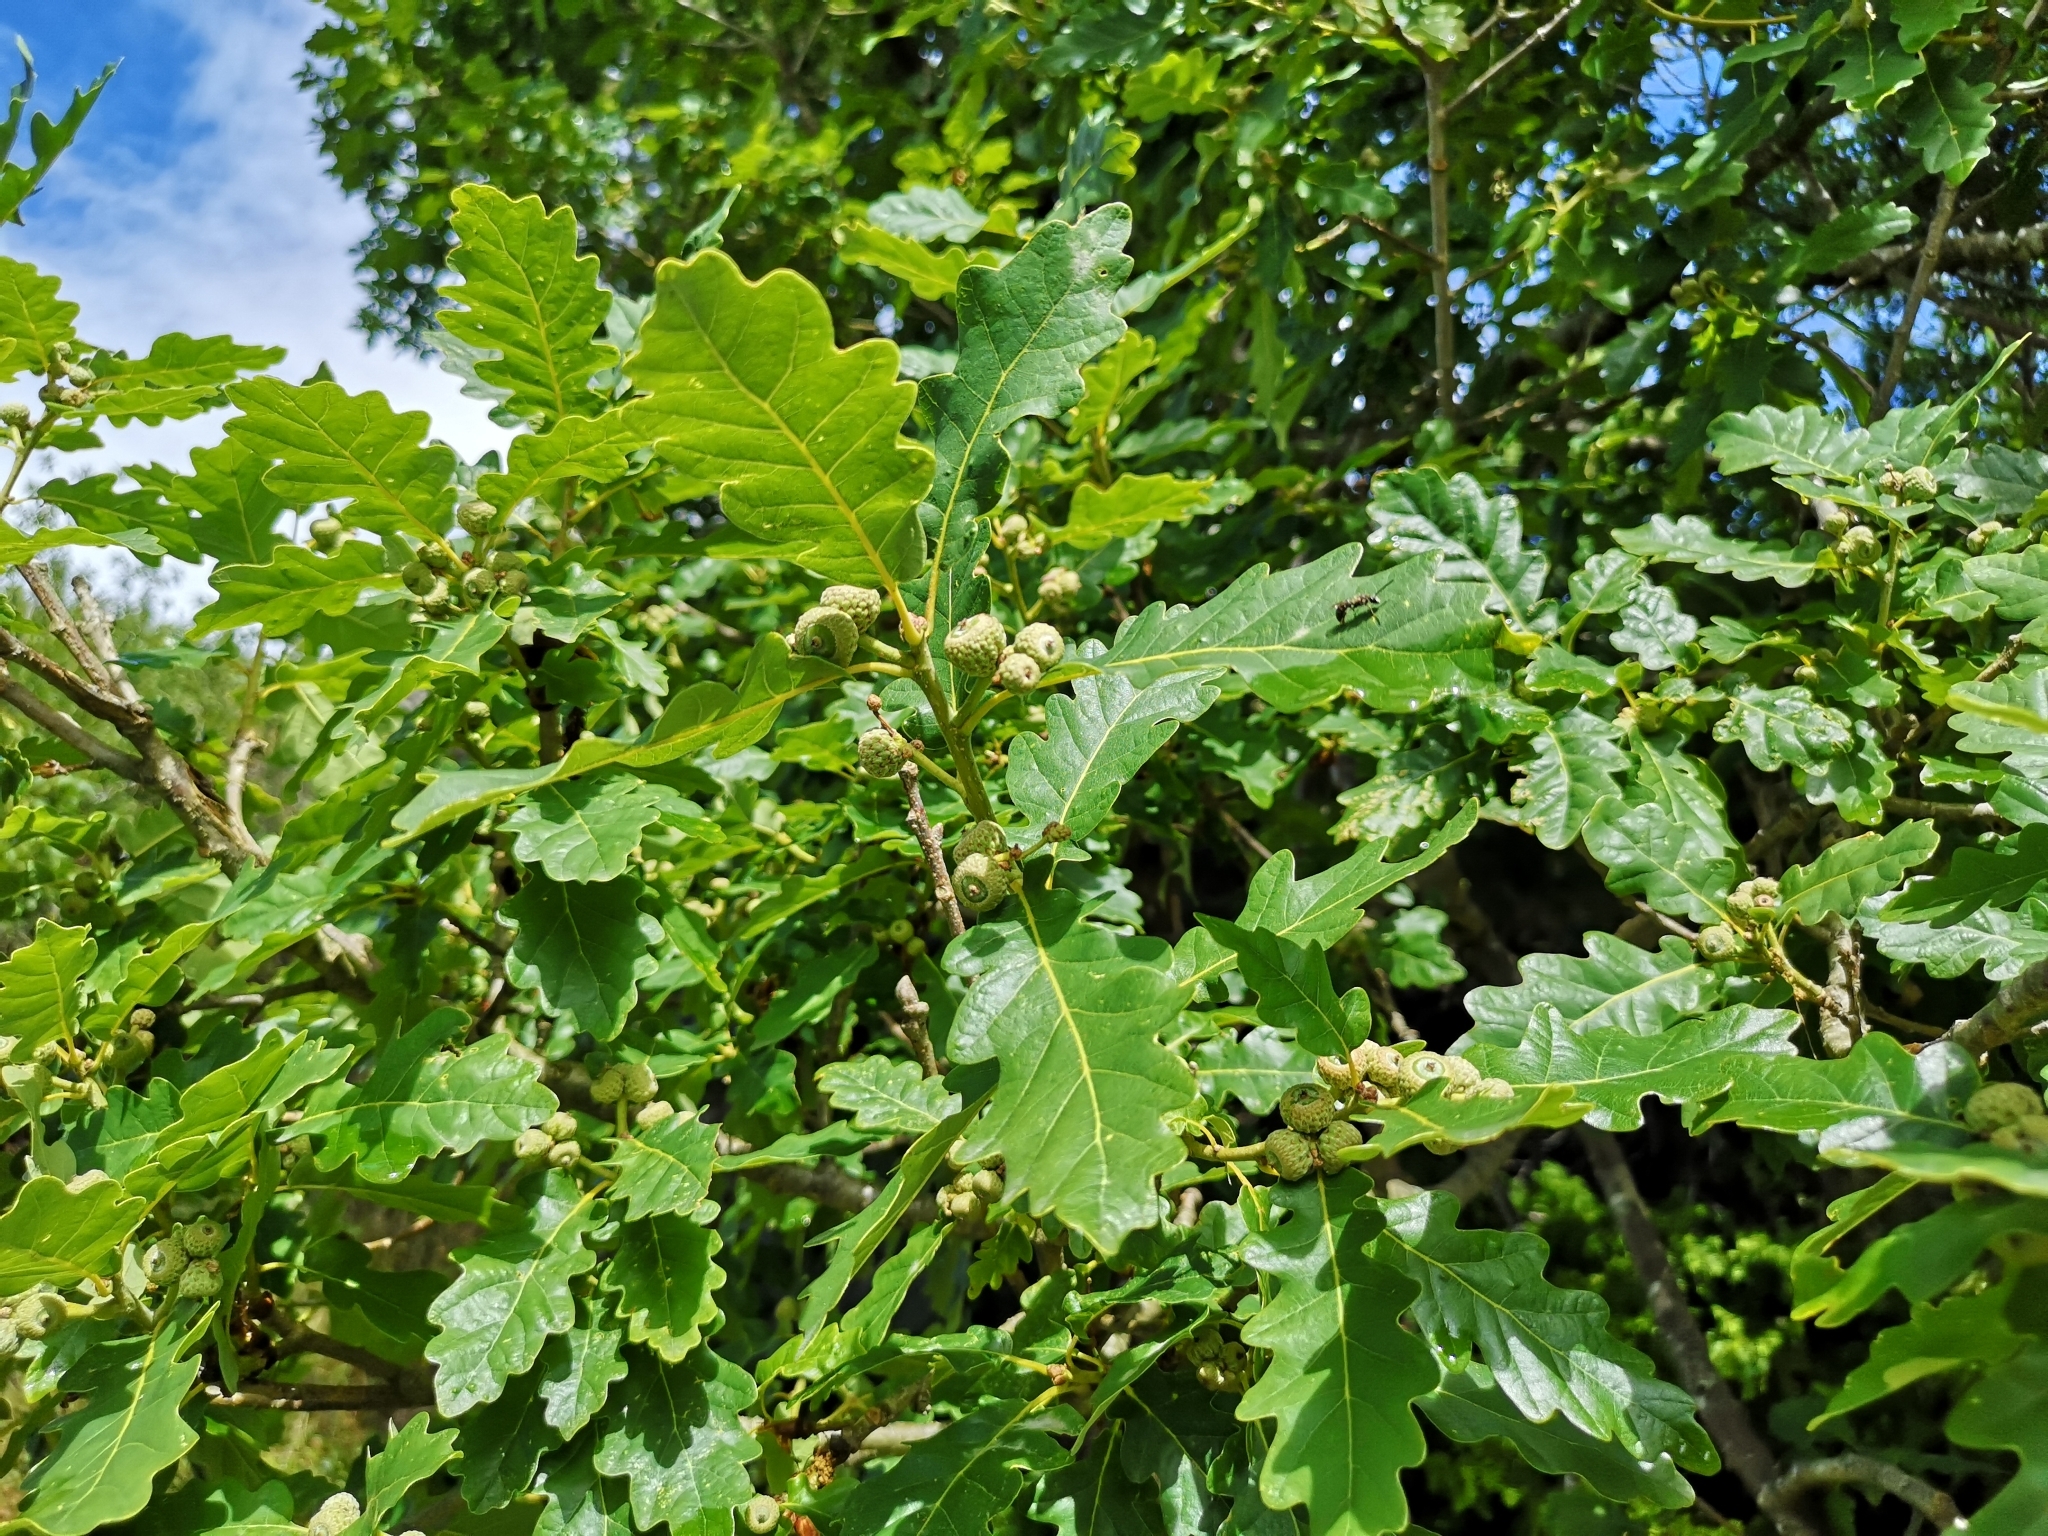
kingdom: Plantae
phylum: Tracheophyta
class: Magnoliopsida
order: Fagales
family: Fagaceae
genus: Quercus
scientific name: Quercus robur
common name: Pedunculate oak
